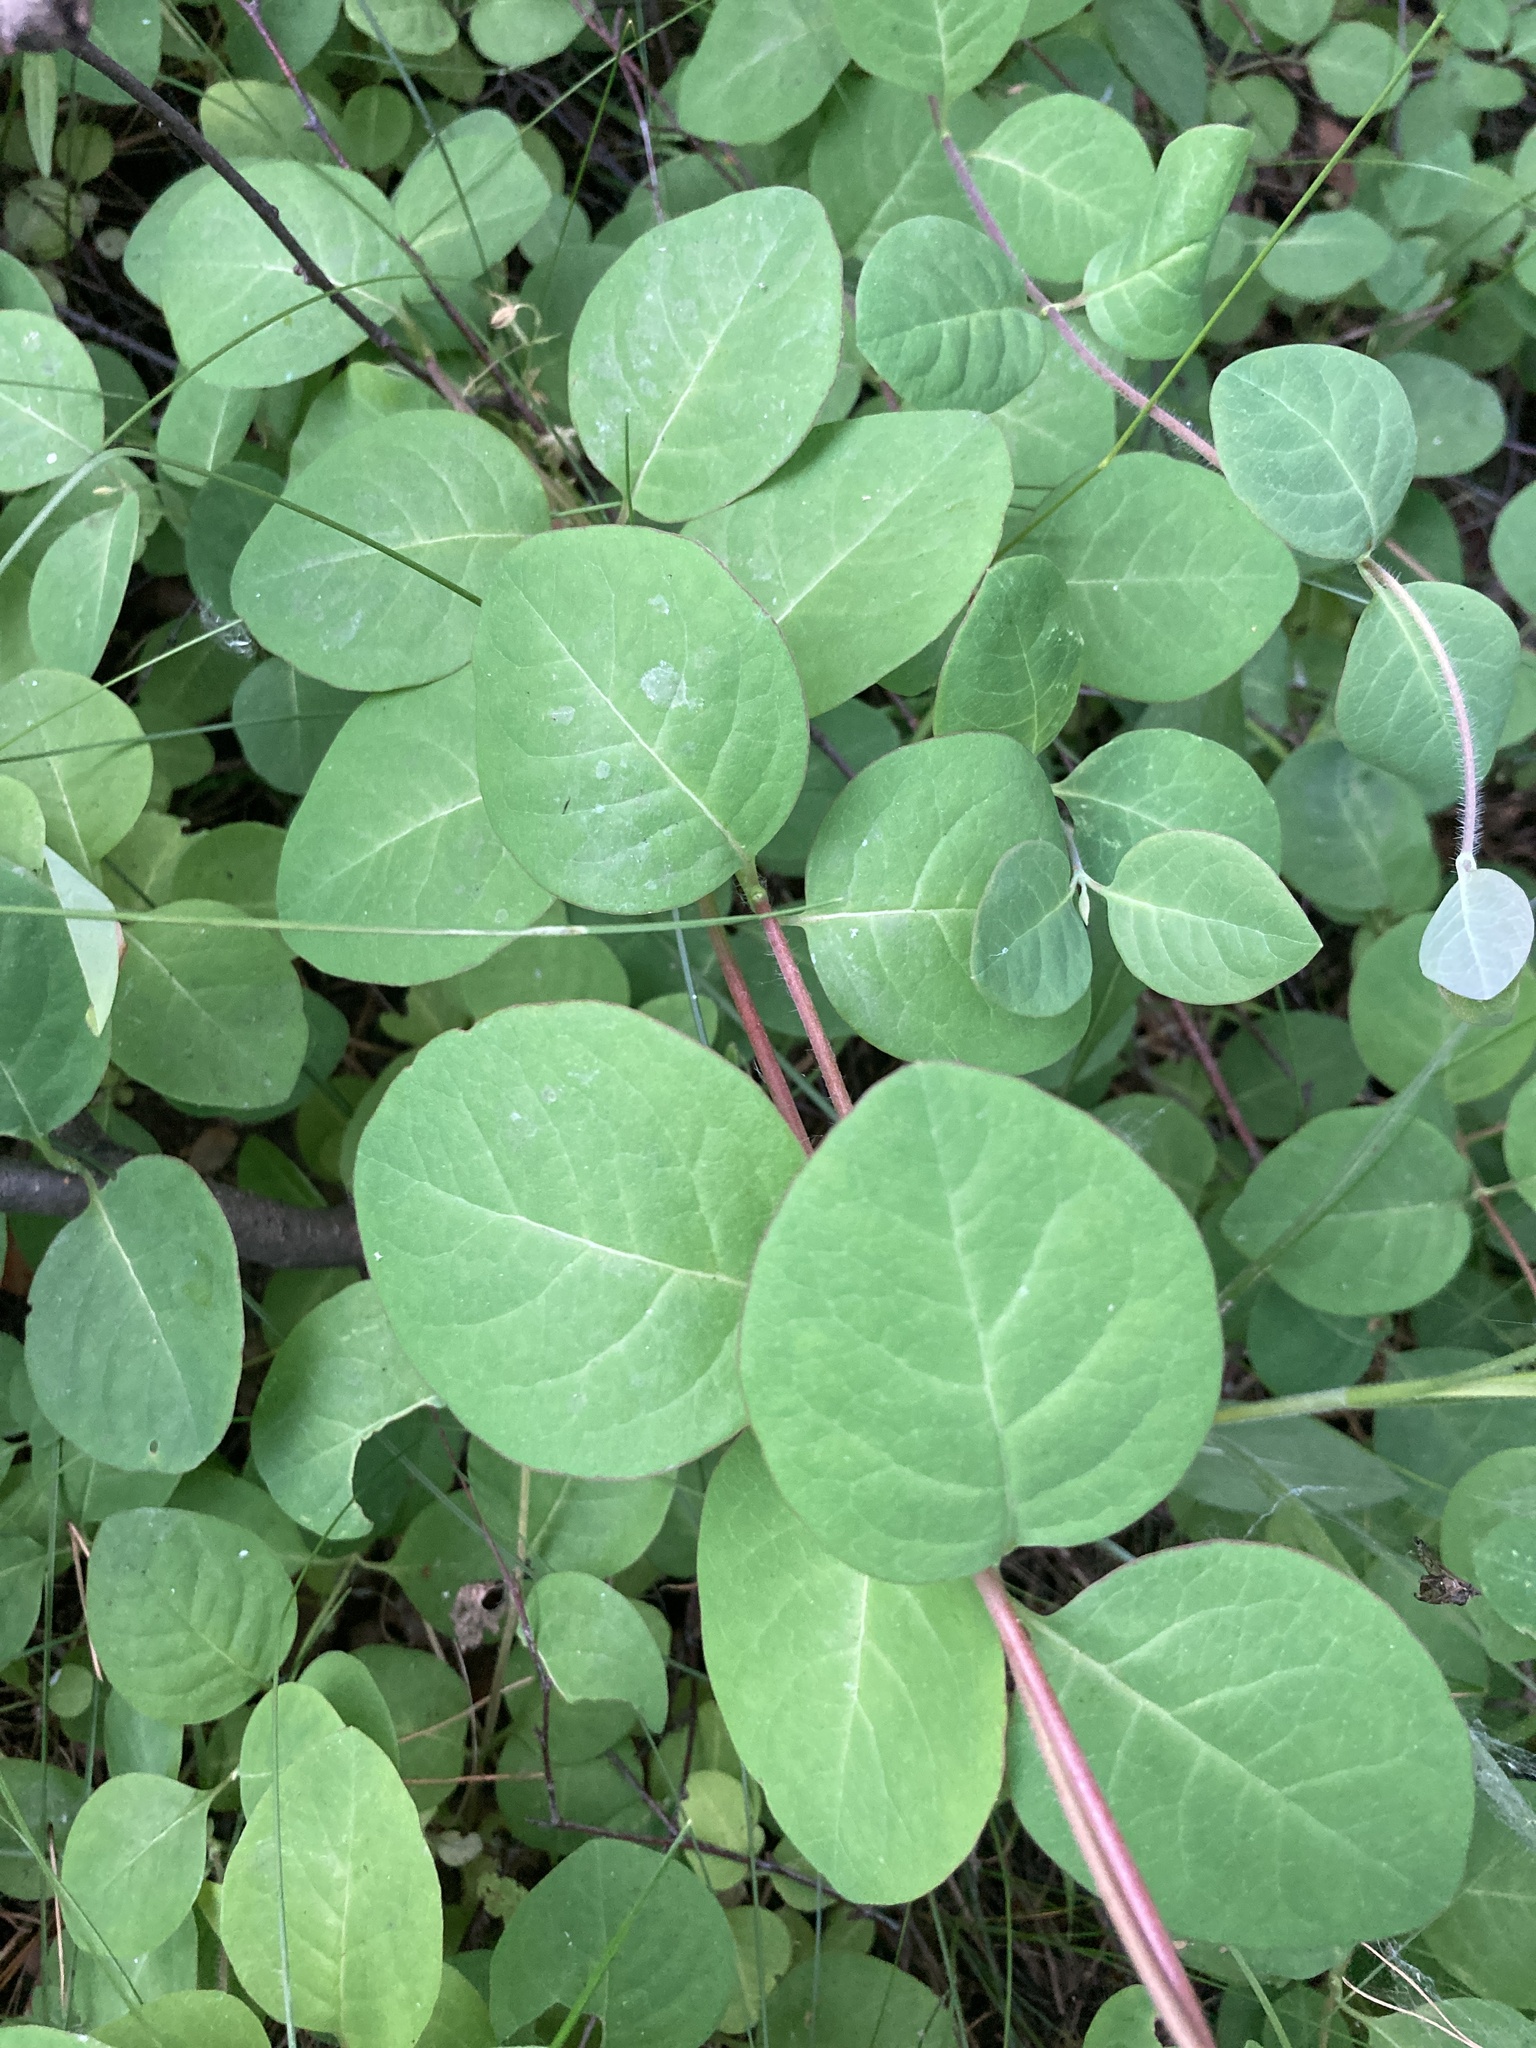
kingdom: Plantae
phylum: Tracheophyta
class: Magnoliopsida
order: Dipsacales
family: Caprifoliaceae
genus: Lonicera
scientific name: Lonicera caprifolium
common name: Perfoliate honeysuckle
